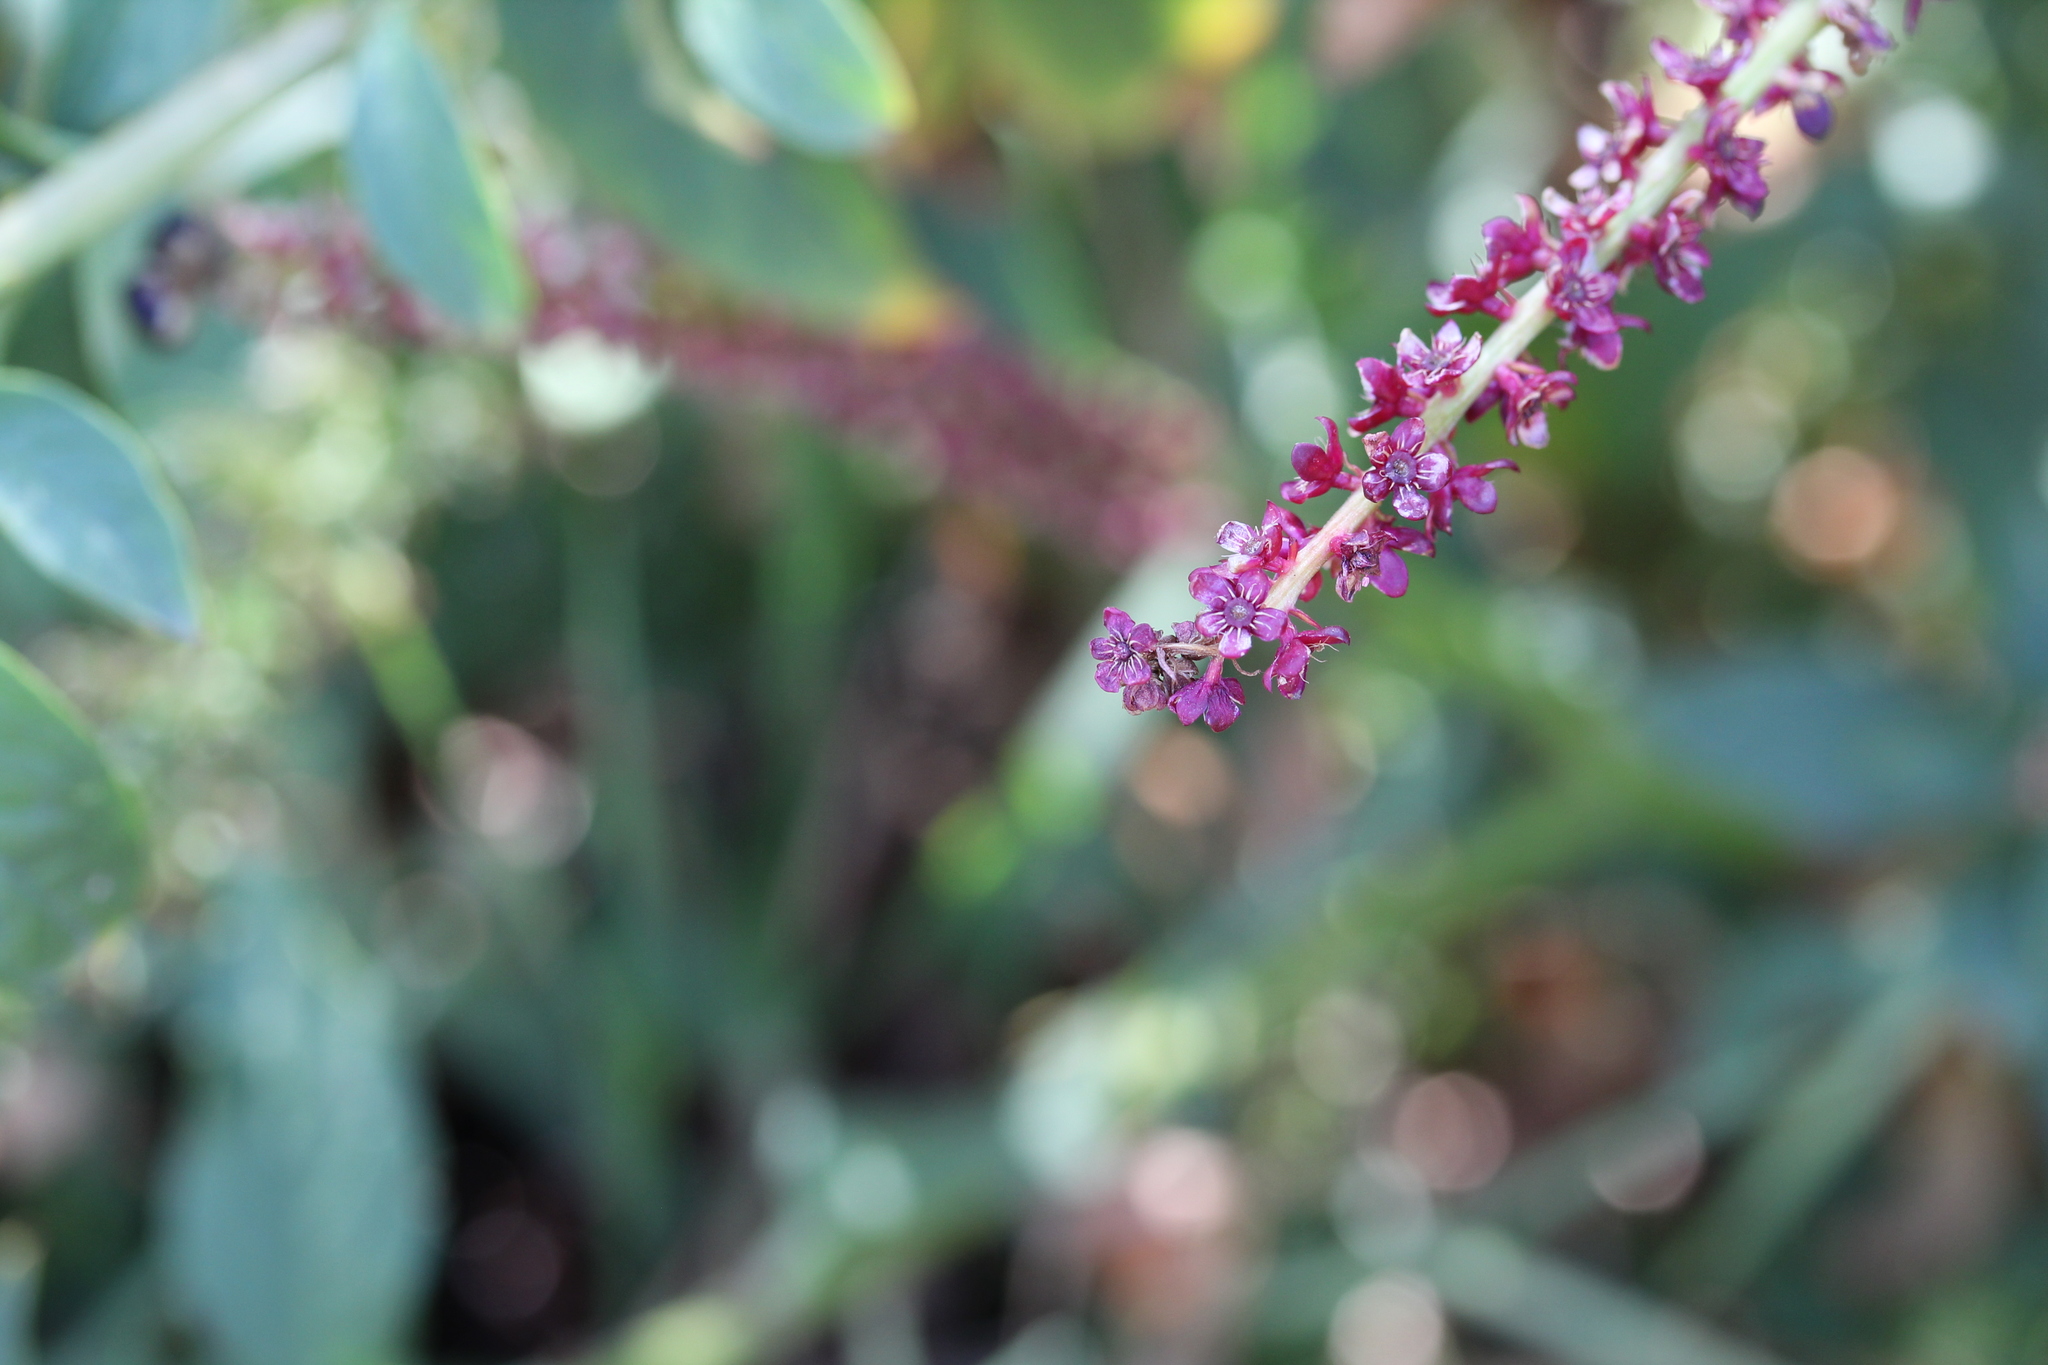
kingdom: Plantae
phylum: Tracheophyta
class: Magnoliopsida
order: Caryophyllales
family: Phytolaccaceae
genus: Phytolacca
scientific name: Phytolacca icosandra
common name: Button pokeweed
